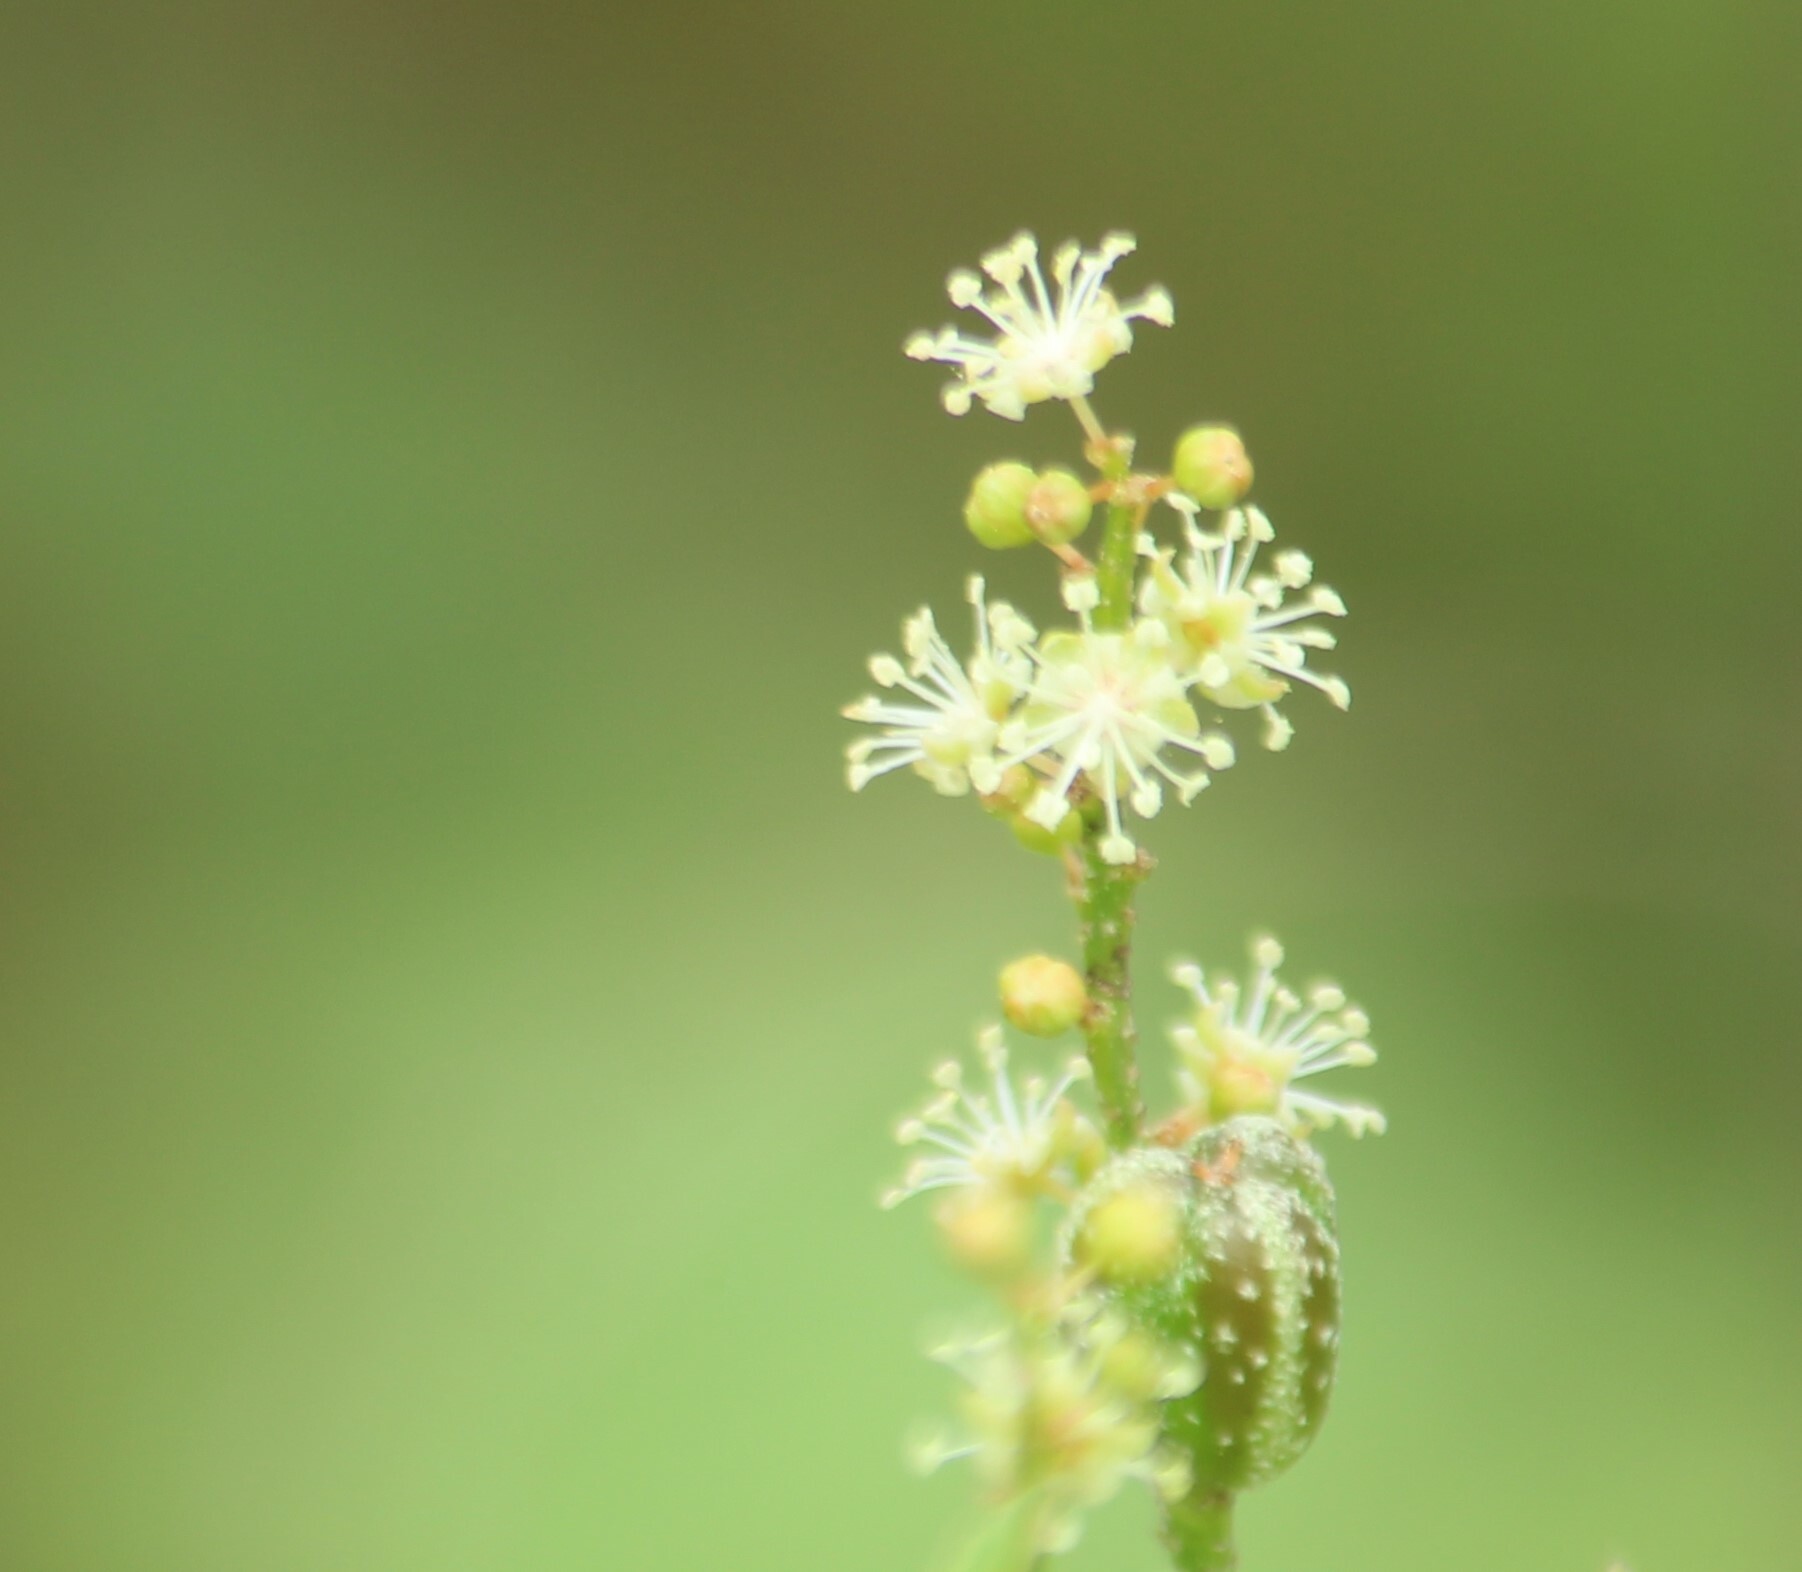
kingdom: Plantae
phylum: Tracheophyta
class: Magnoliopsida
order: Malpighiales
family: Euphorbiaceae
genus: Croton
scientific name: Croton bonplandianus
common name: Bonpland's croton
